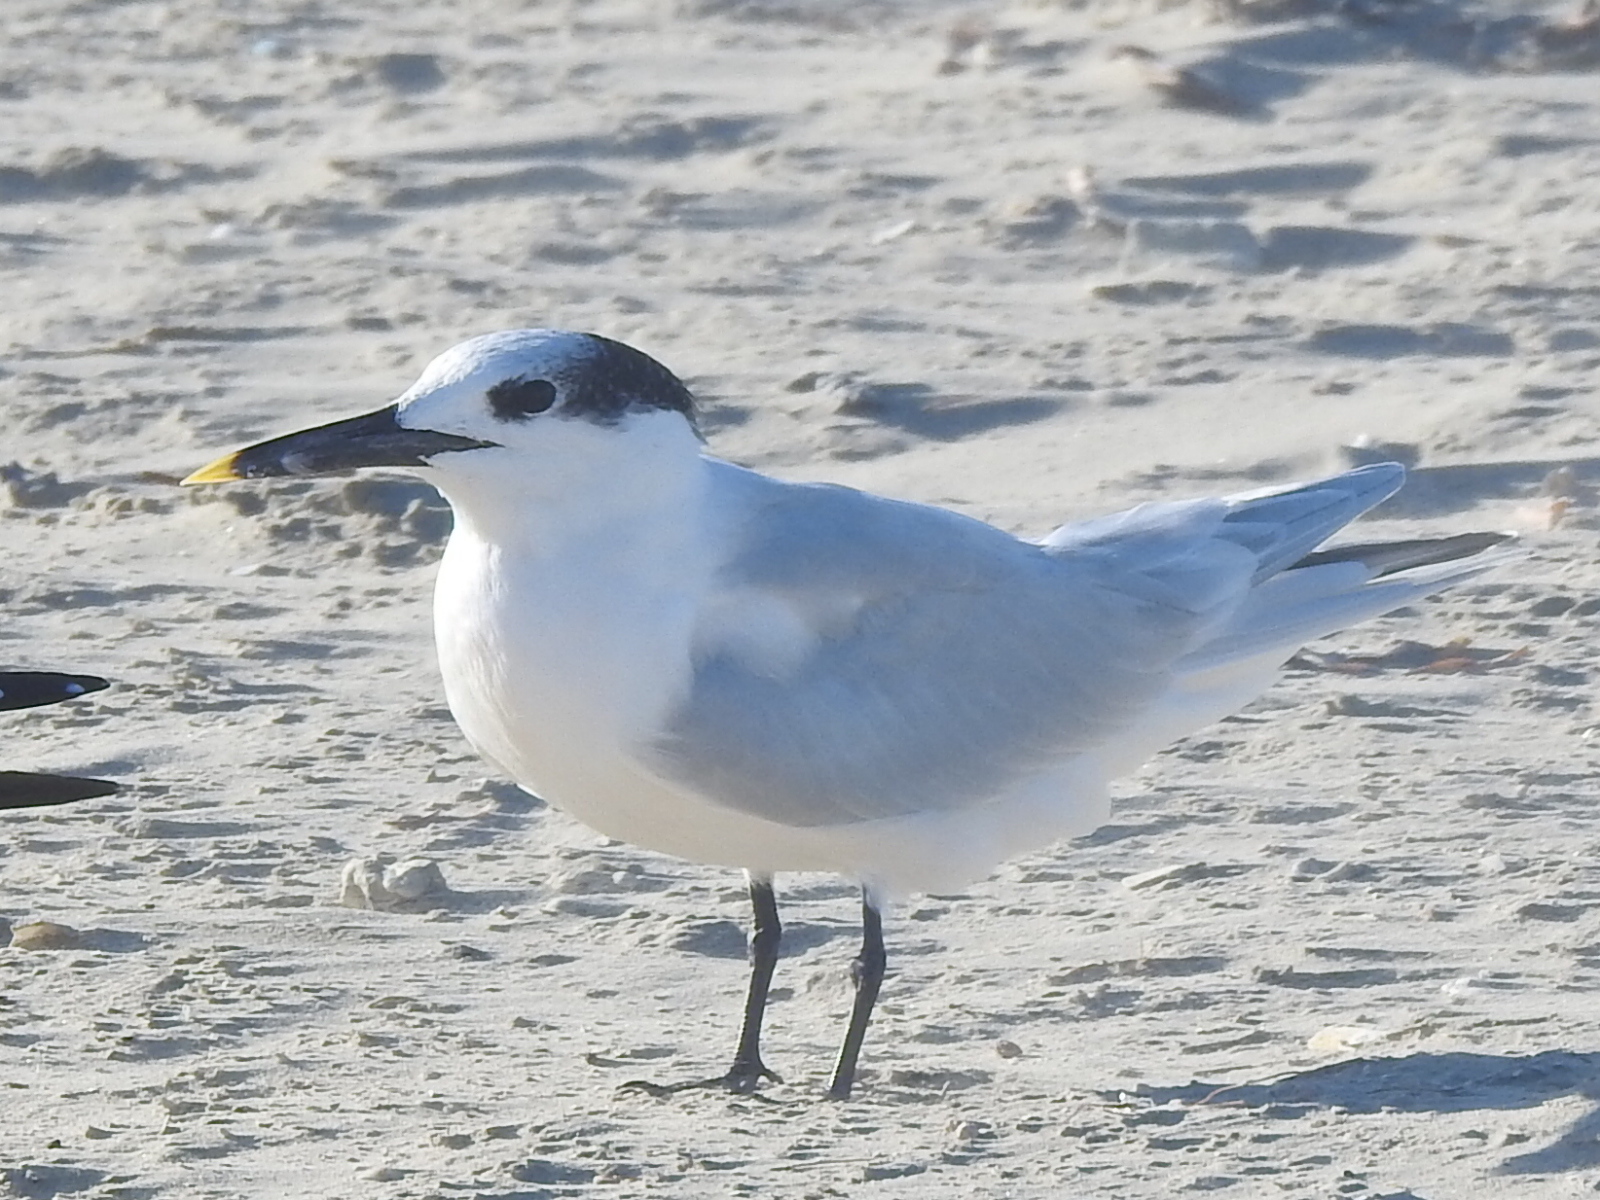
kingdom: Animalia
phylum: Chordata
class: Aves
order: Charadriiformes
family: Laridae
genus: Thalasseus
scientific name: Thalasseus sandvicensis
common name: Sandwich tern
